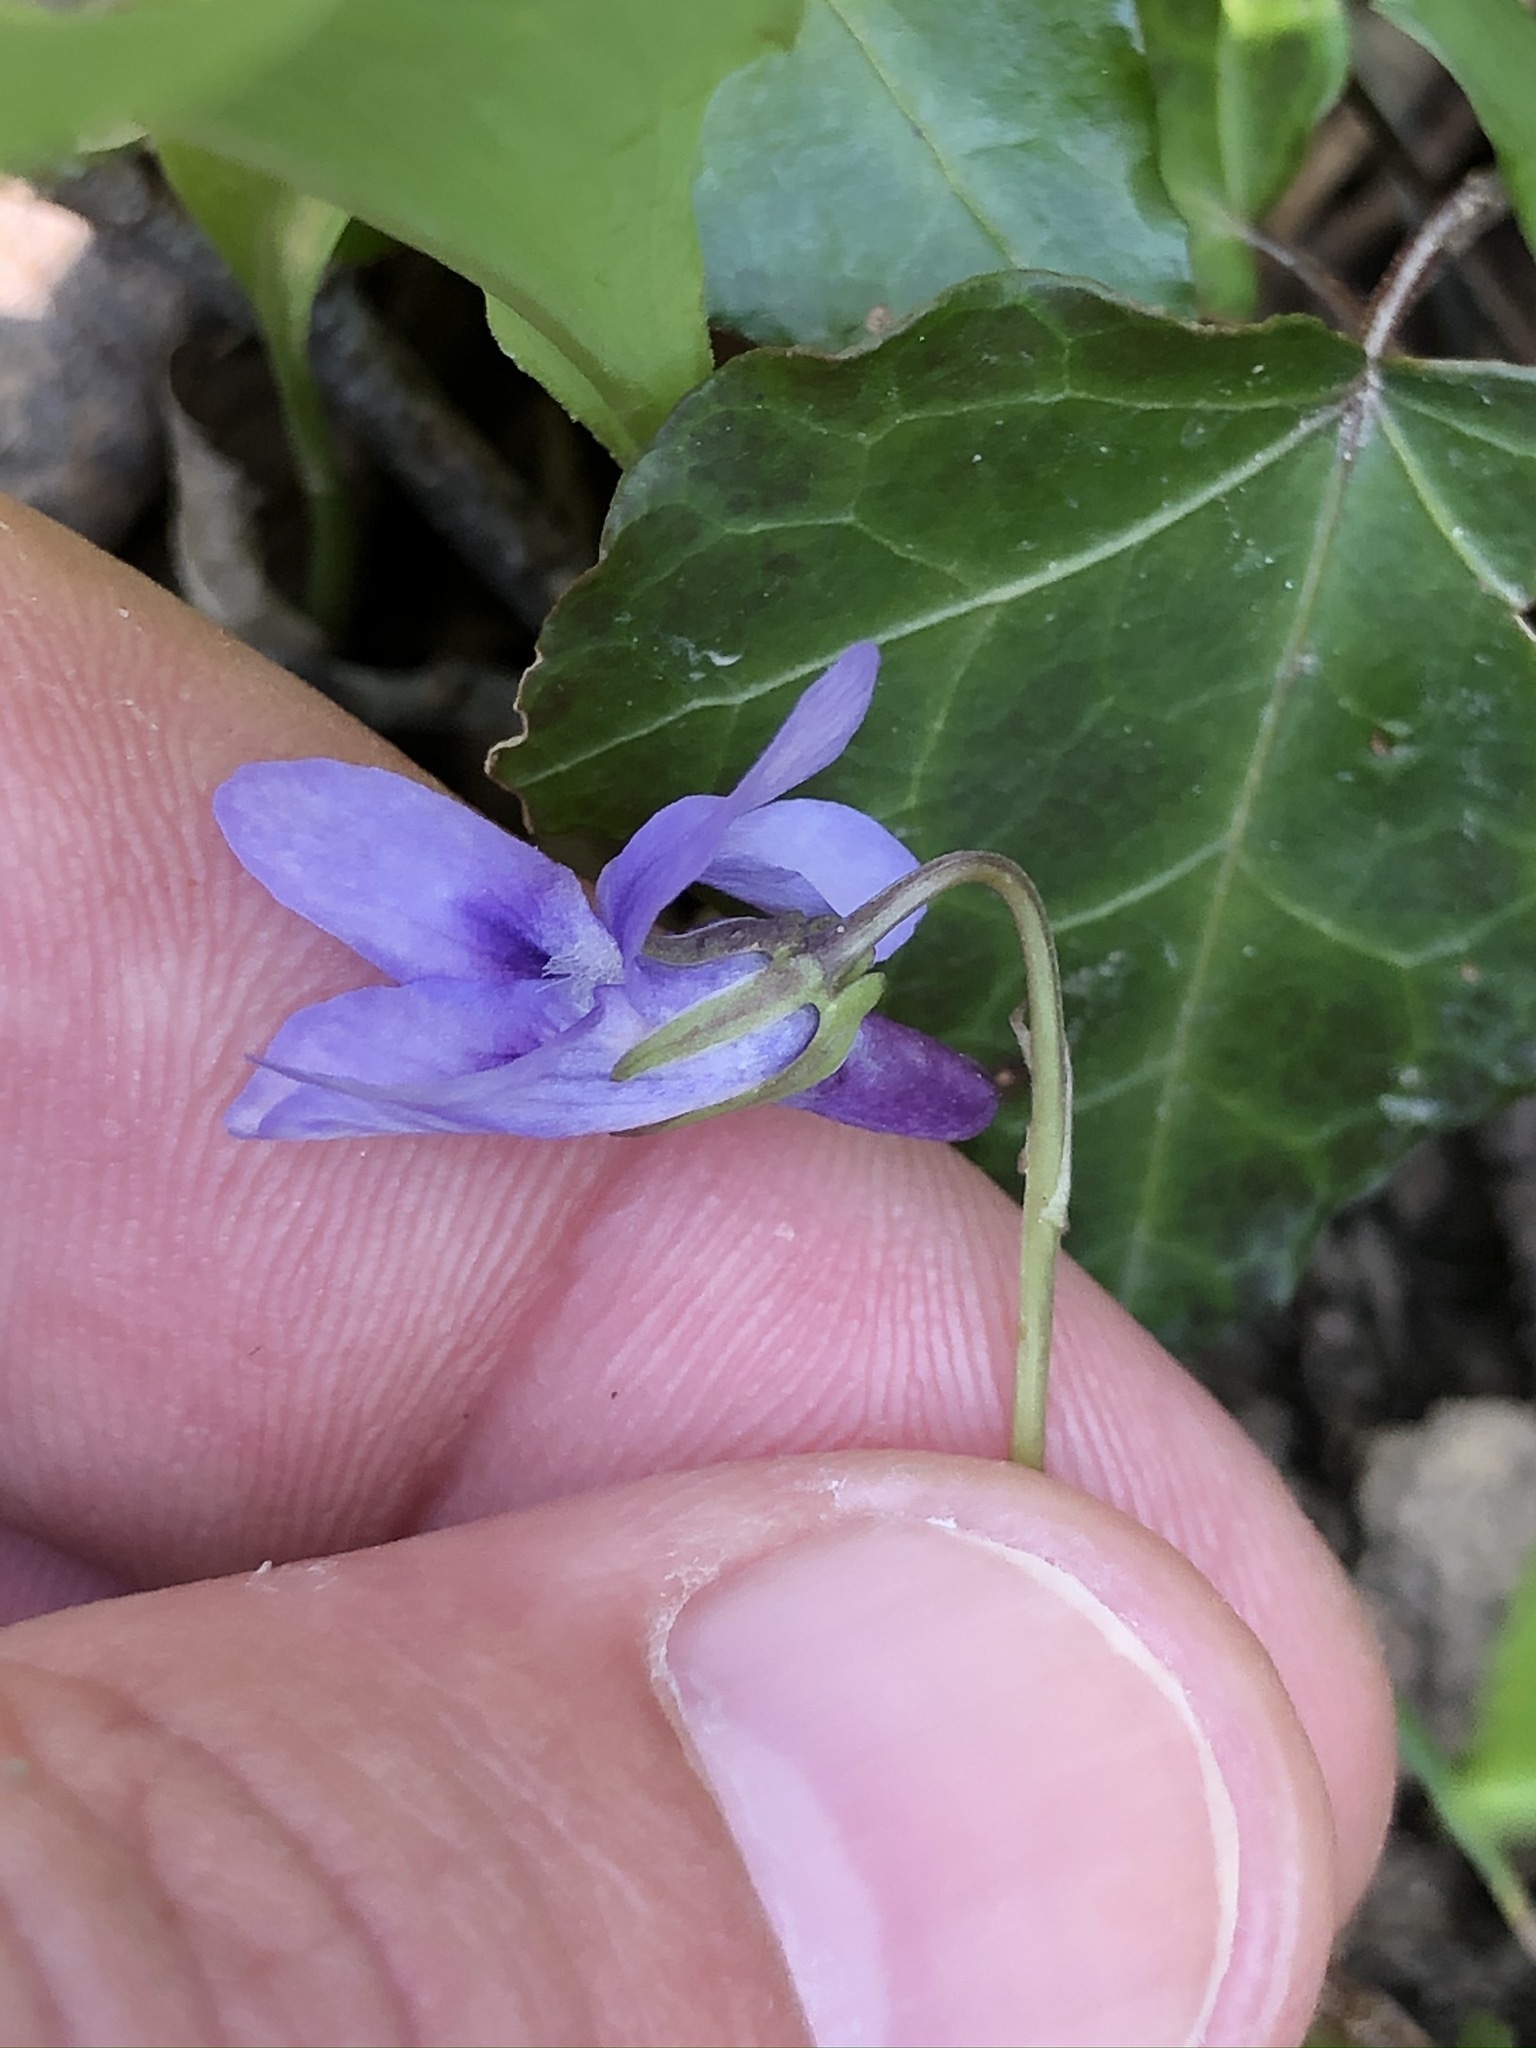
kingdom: Plantae
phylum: Tracheophyta
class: Magnoliopsida
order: Malpighiales
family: Violaceae
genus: Viola
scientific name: Viola reichenbachiana
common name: Early dog-violet
